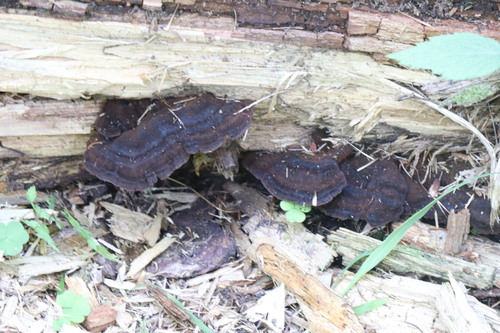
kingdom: Fungi
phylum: Basidiomycota
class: Agaricomycetes
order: Polyporales
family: Ischnodermataceae
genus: Ischnoderma
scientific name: Ischnoderma benzoinum
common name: Benzoin bracket
